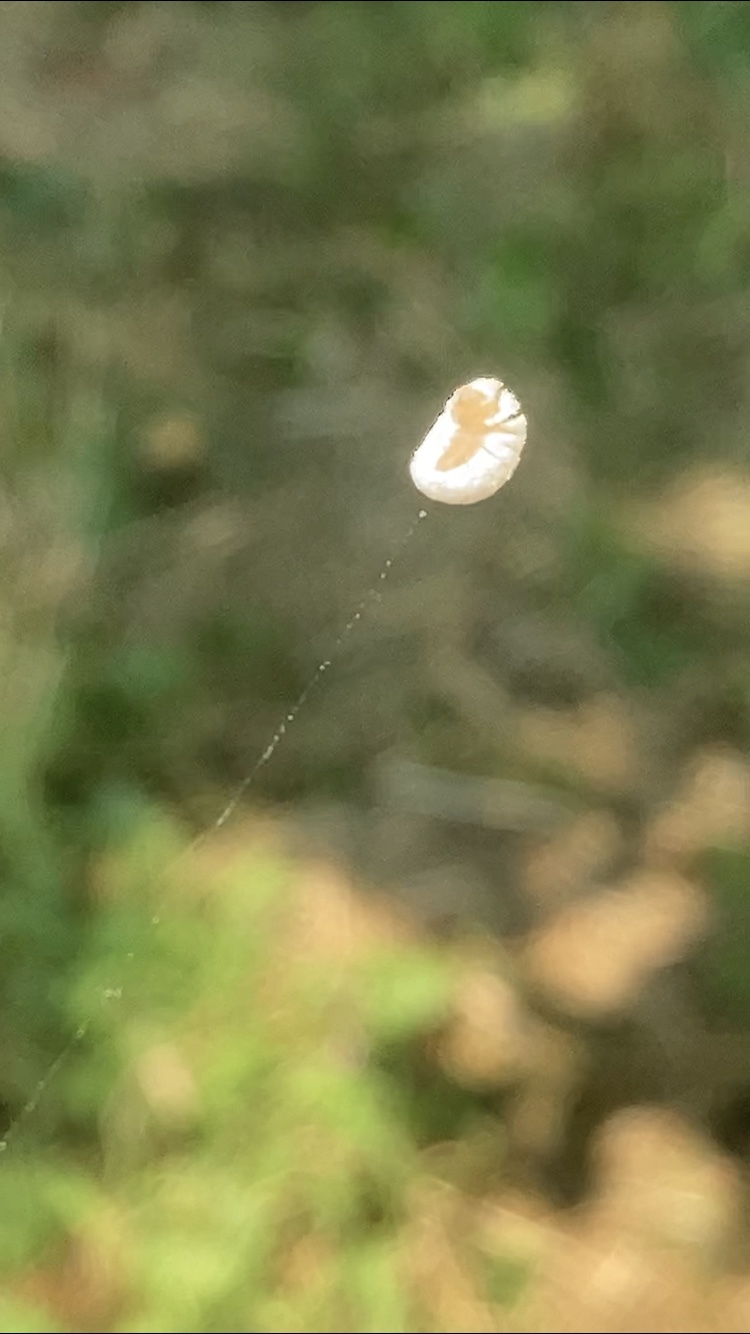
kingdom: Animalia
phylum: Arthropoda
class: Insecta
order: Lepidoptera
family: Epipyropidae
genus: Fulgoraecia
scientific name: Fulgoraecia exigua
